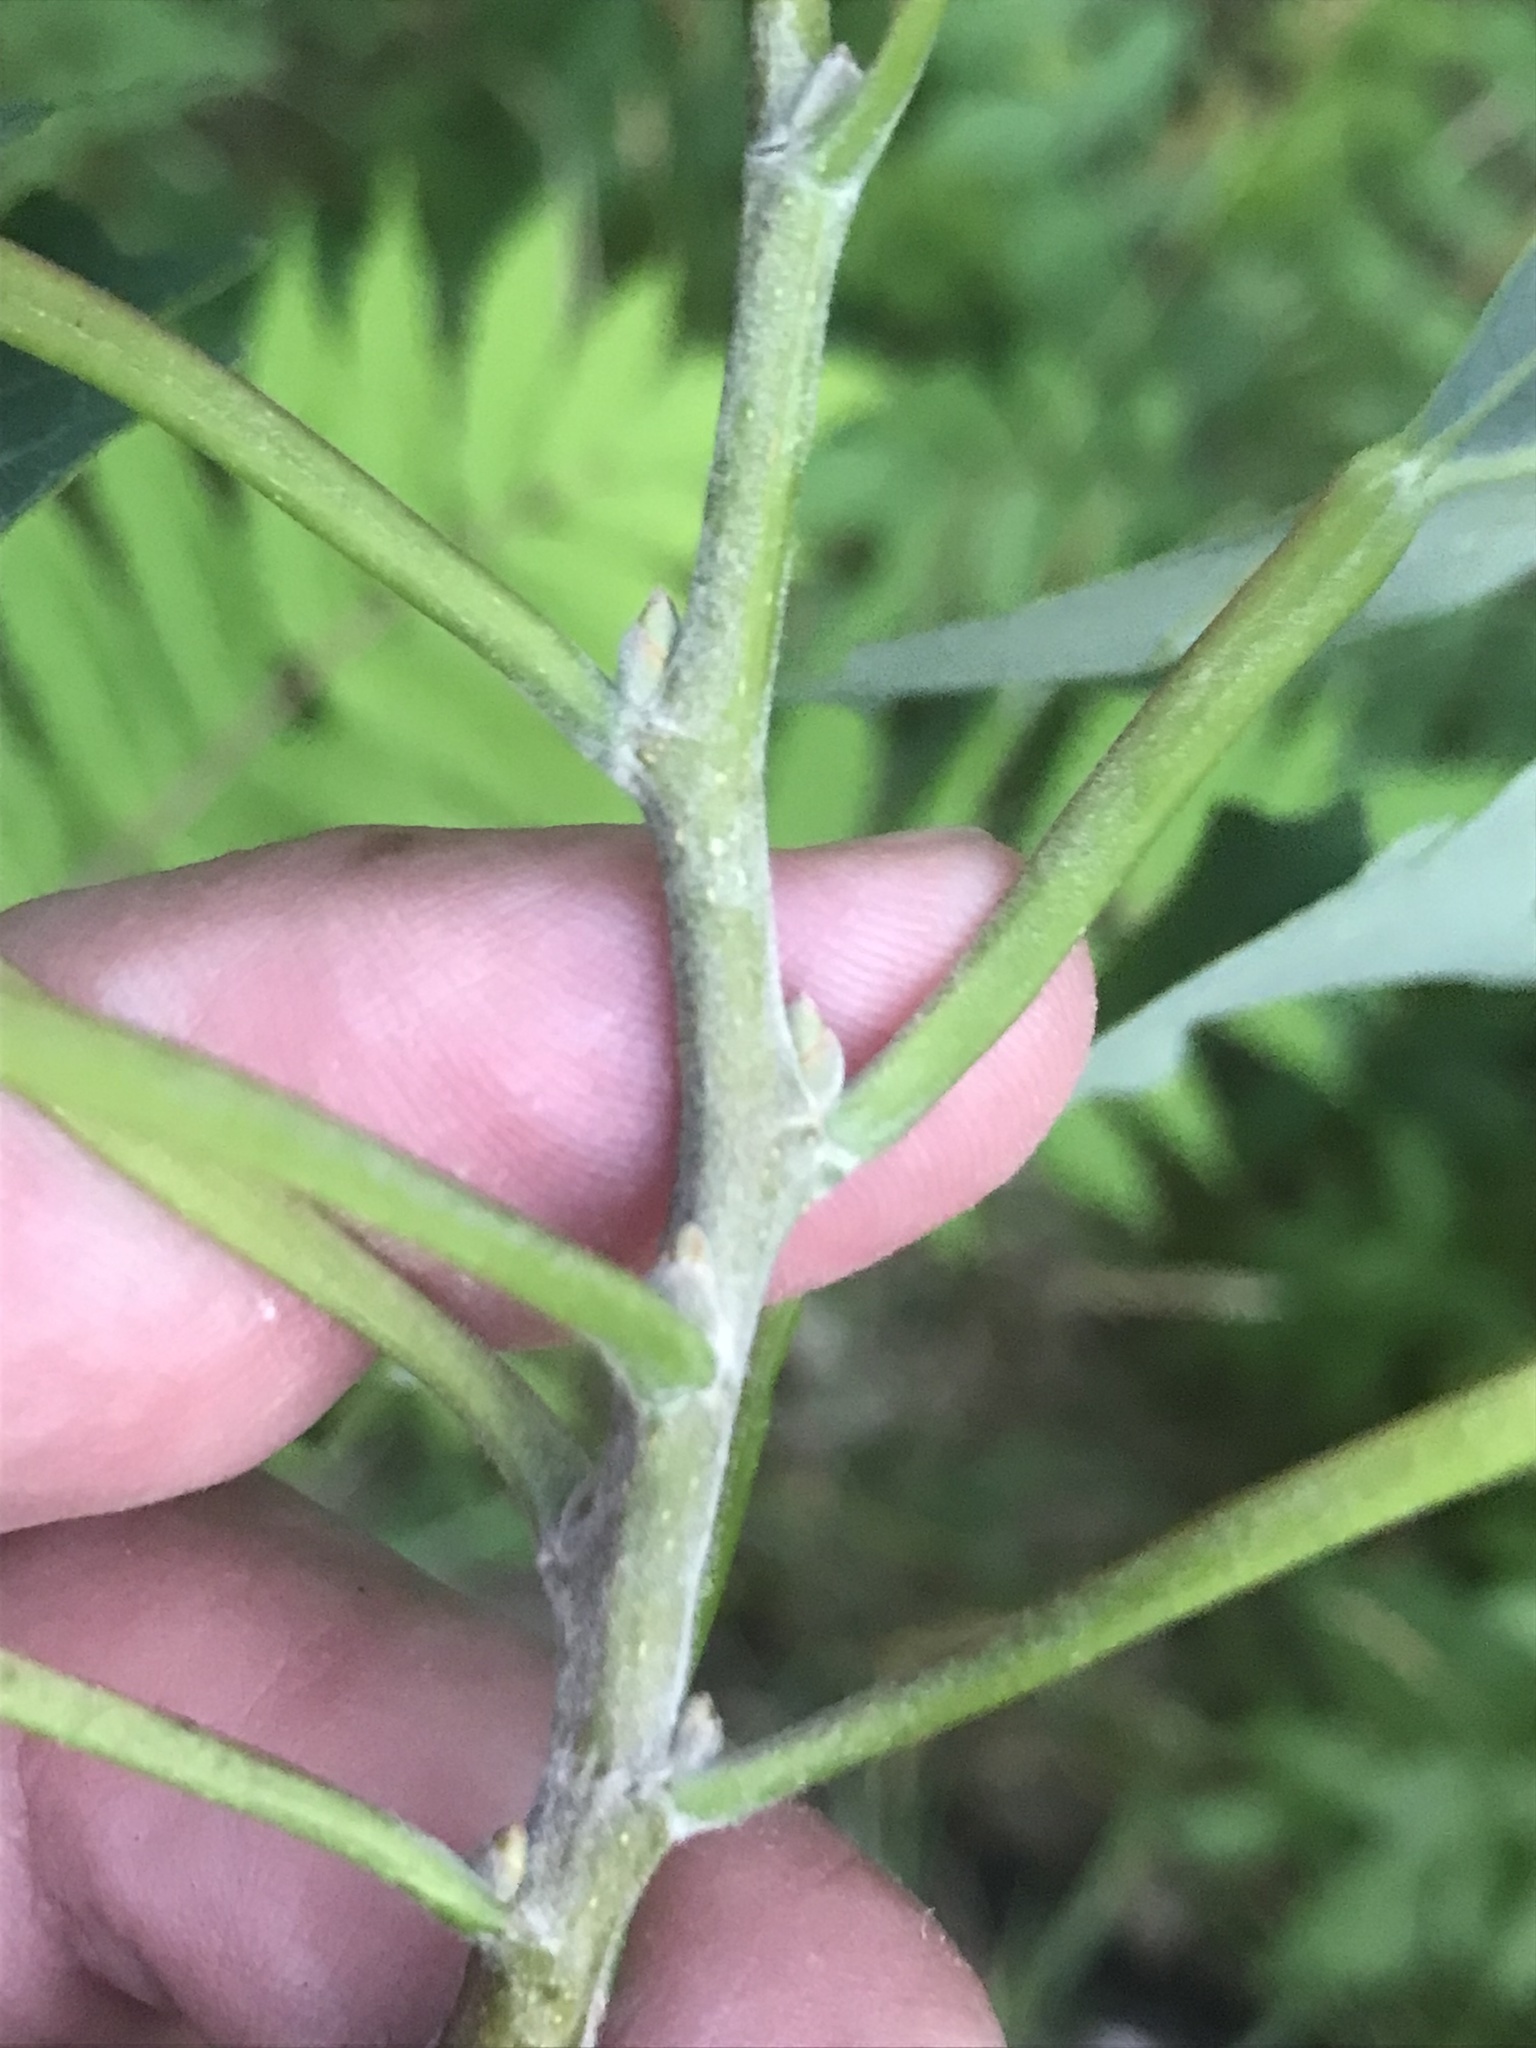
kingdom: Plantae
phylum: Tracheophyta
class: Magnoliopsida
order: Malpighiales
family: Salicaceae
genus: Populus
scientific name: Populus grandidentata
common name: Bigtooth aspen
